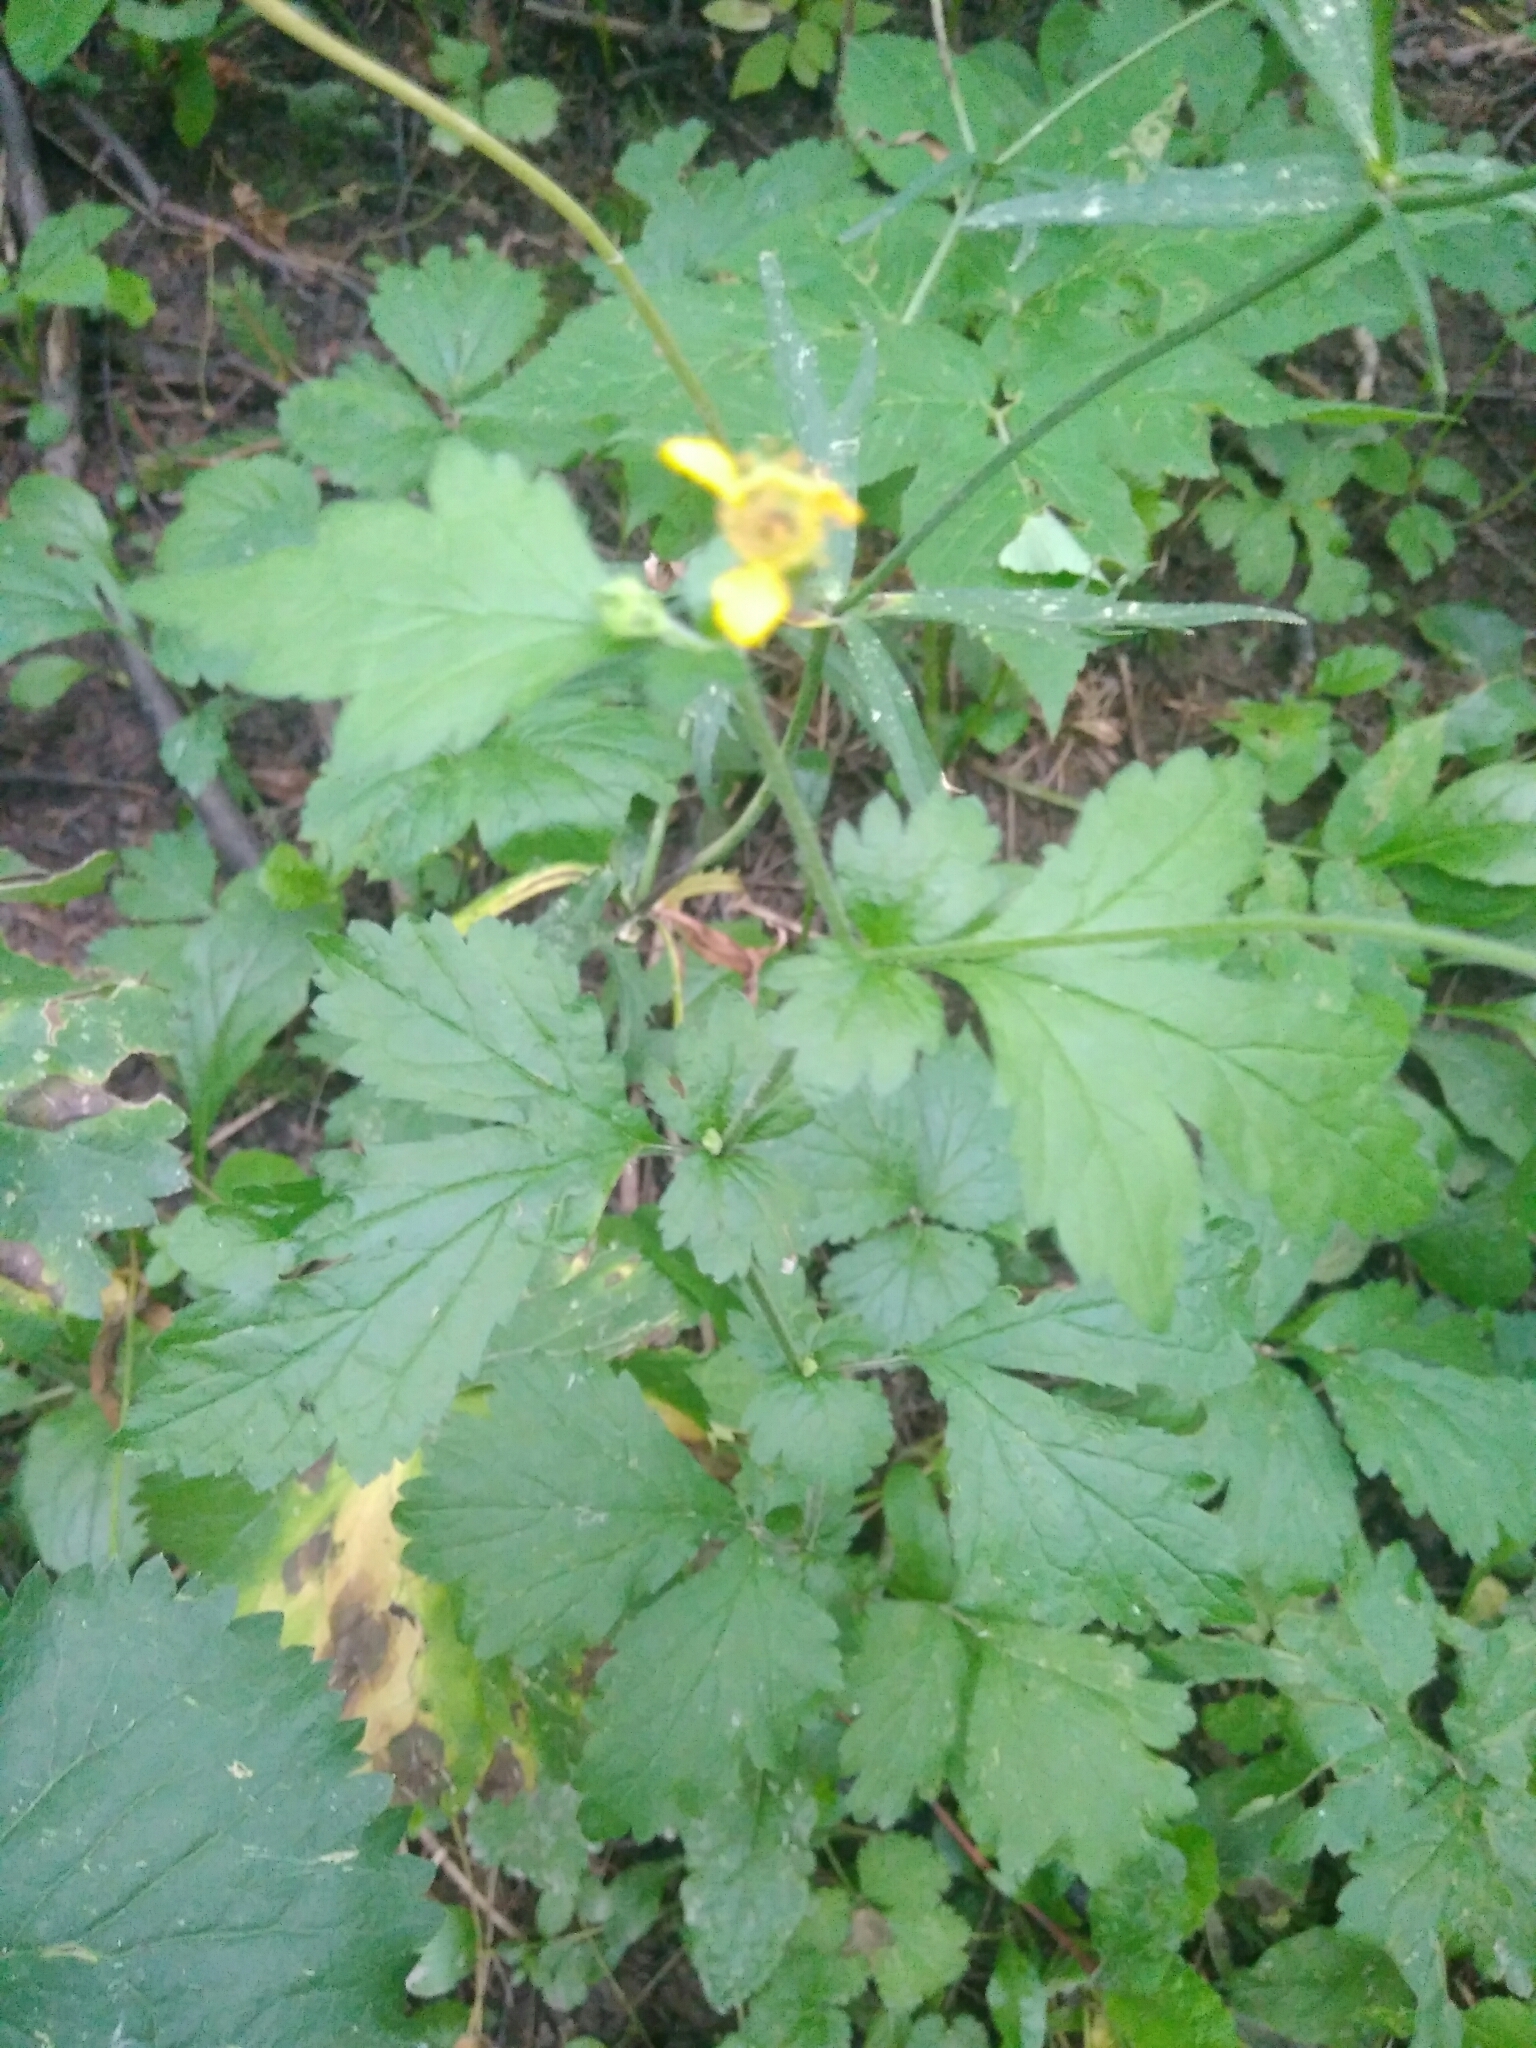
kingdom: Plantae
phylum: Tracheophyta
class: Magnoliopsida
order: Rosales
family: Rosaceae
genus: Geum
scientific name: Geum urbanum
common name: Wood avens
